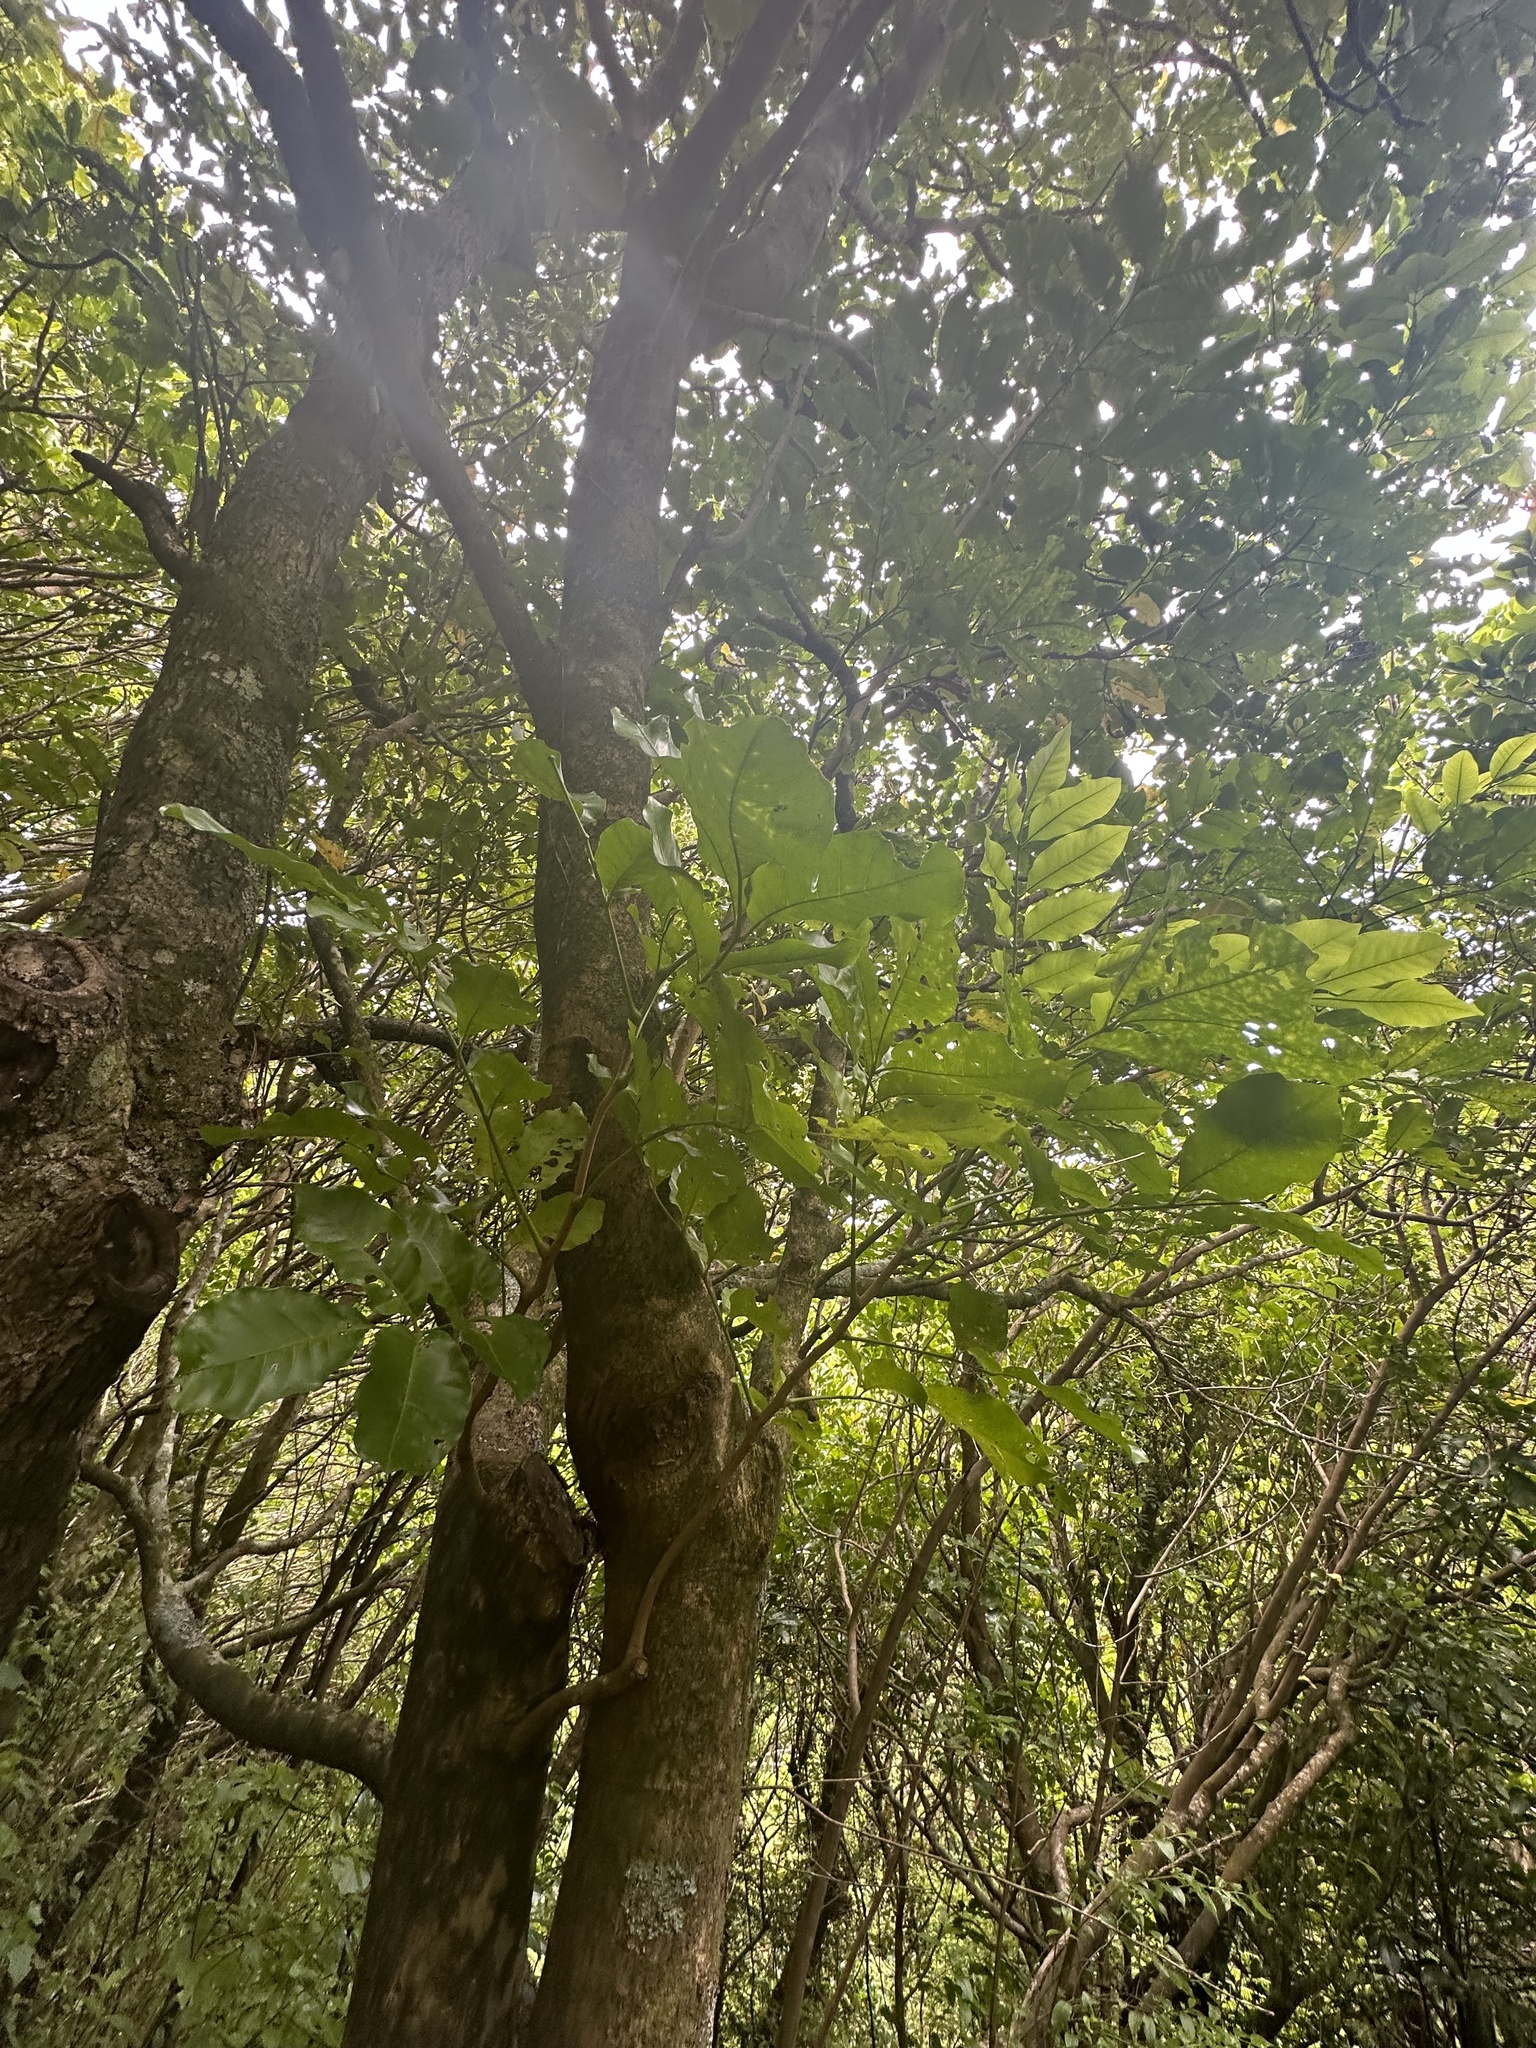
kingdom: Plantae
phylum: Tracheophyta
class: Magnoliopsida
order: Sapindales
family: Meliaceae
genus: Didymocheton
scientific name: Didymocheton spectabilis
